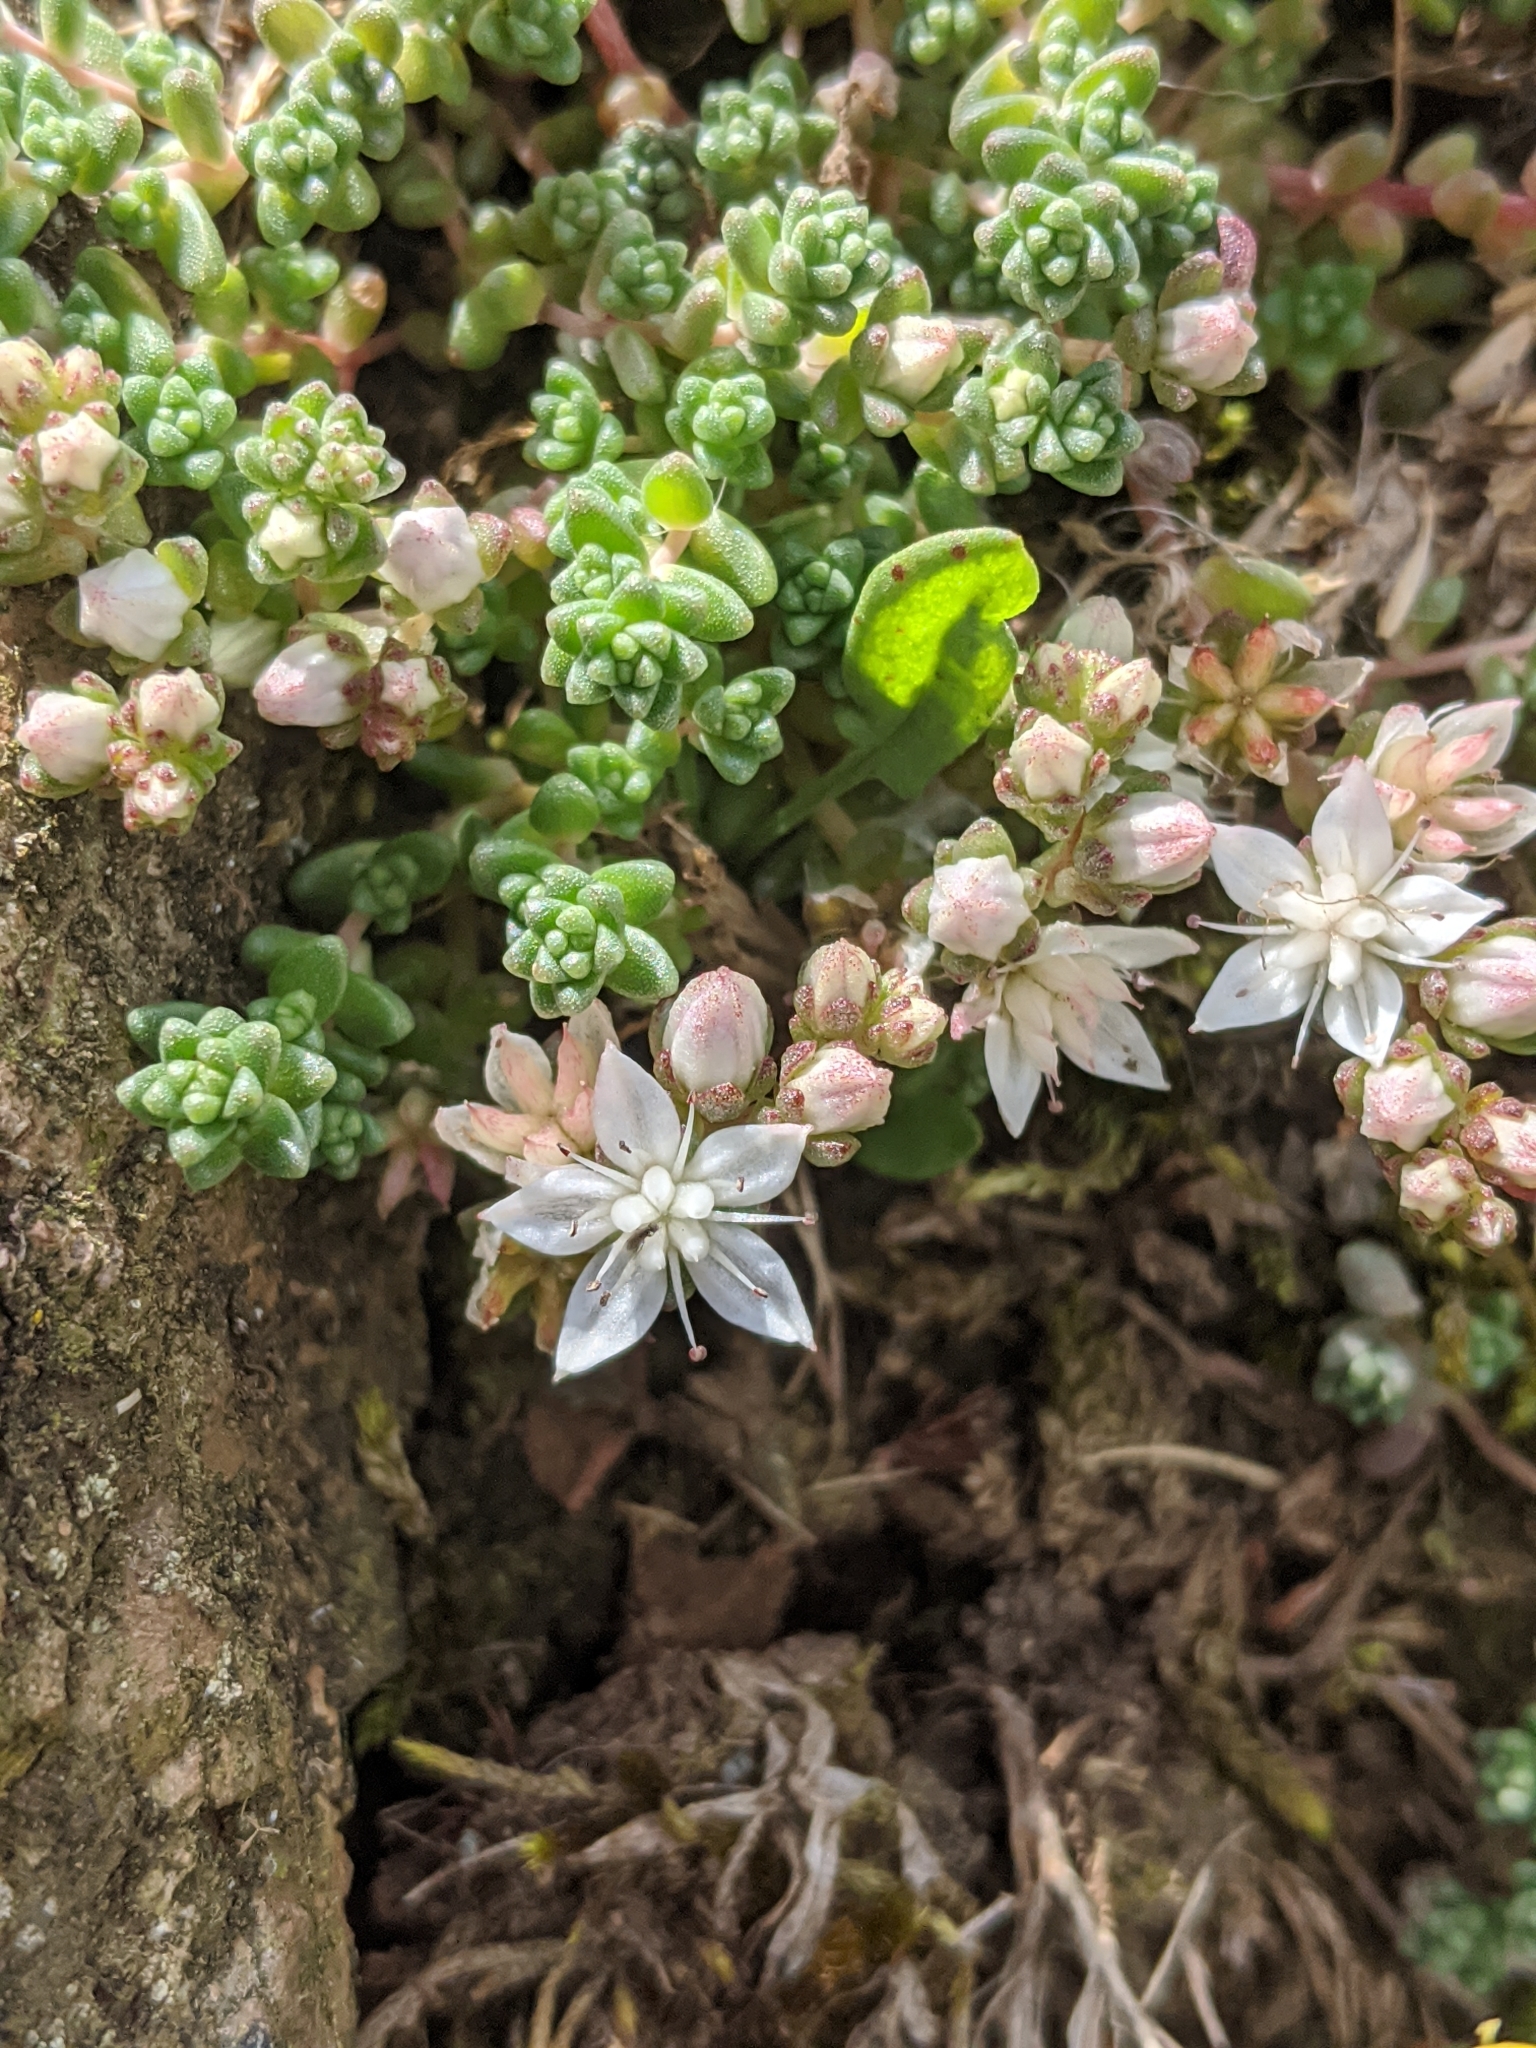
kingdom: Plantae
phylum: Tracheophyta
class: Magnoliopsida
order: Saxifragales
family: Crassulaceae
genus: Sedum
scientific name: Sedum anglicum
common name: English stonecrop
